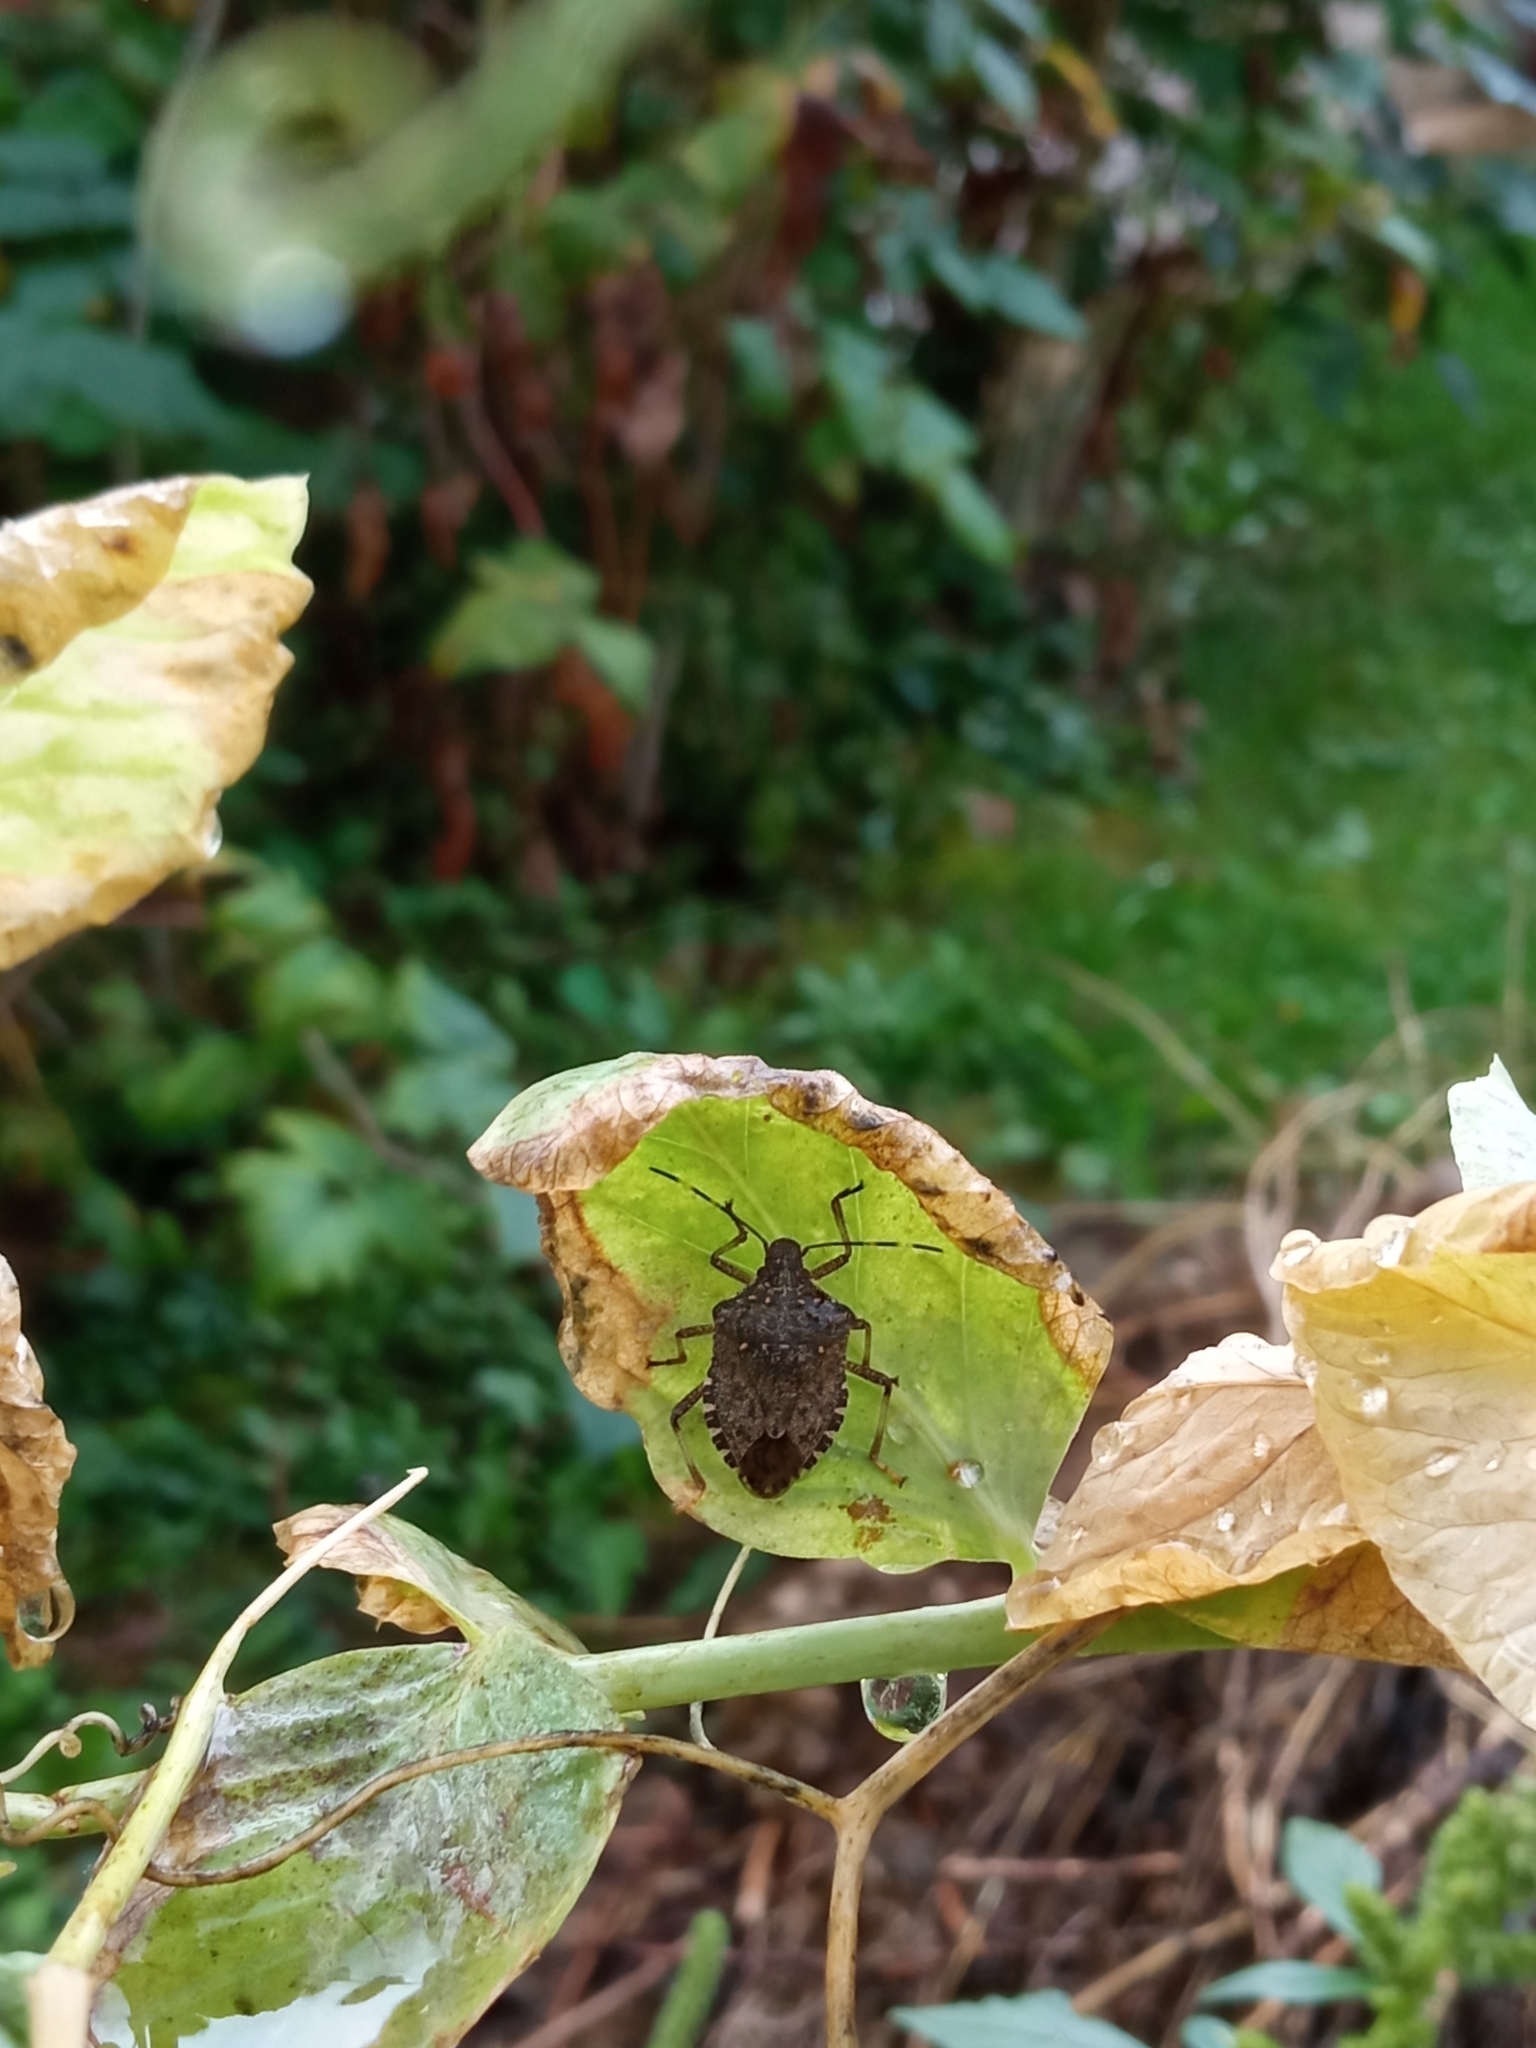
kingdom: Animalia
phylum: Arthropoda
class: Insecta
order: Hemiptera
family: Pentatomidae
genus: Halyomorpha
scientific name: Halyomorpha halys
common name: Brown marmorated stink bug
